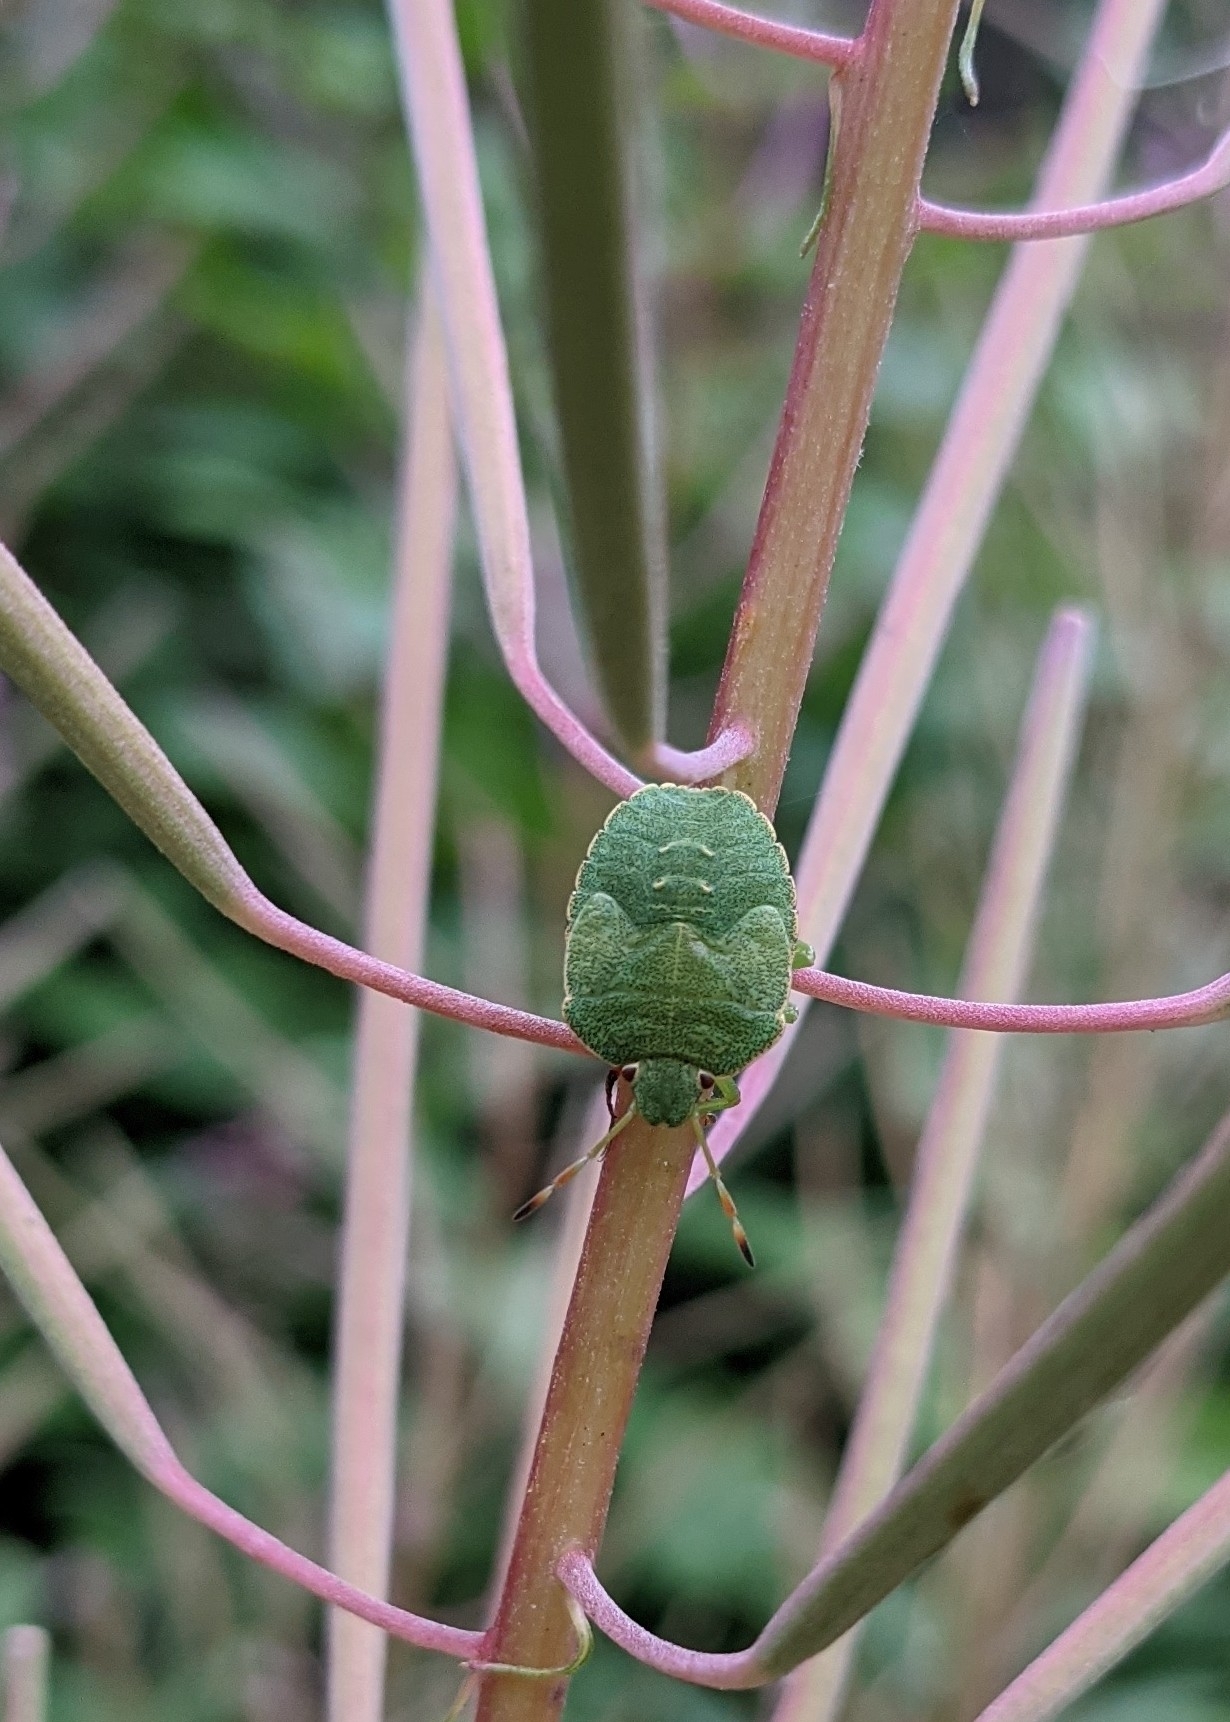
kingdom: Animalia
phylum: Arthropoda
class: Insecta
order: Hemiptera
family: Pentatomidae
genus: Palomena
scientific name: Palomena prasina
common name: Green shieldbug
